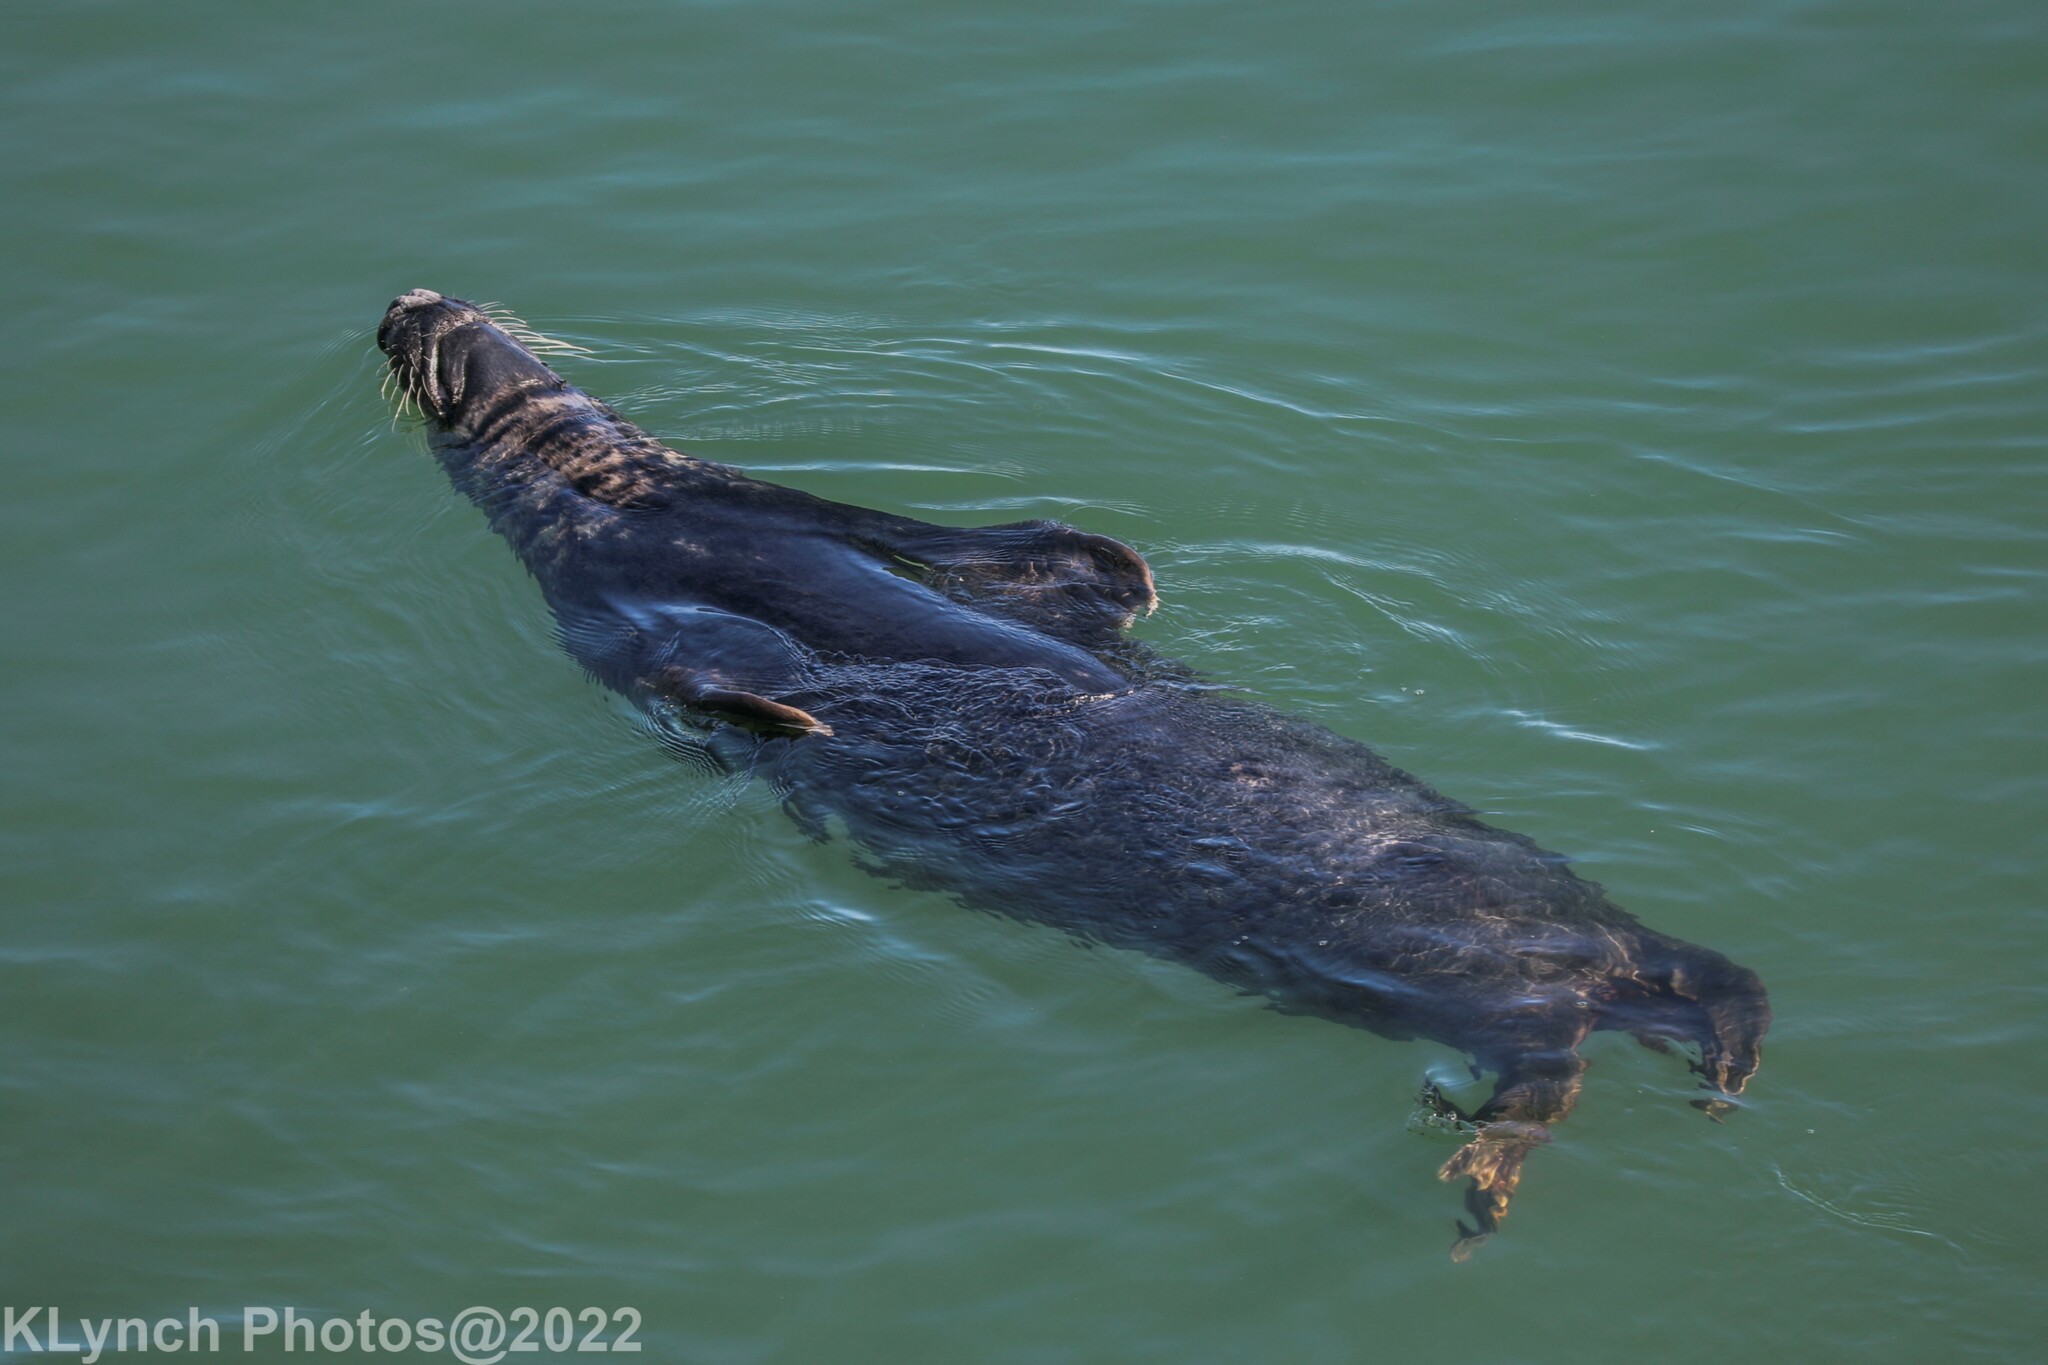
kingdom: Animalia
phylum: Chordata
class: Mammalia
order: Carnivora
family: Phocidae
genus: Halichoerus
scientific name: Halichoerus grypus
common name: Grey seal
